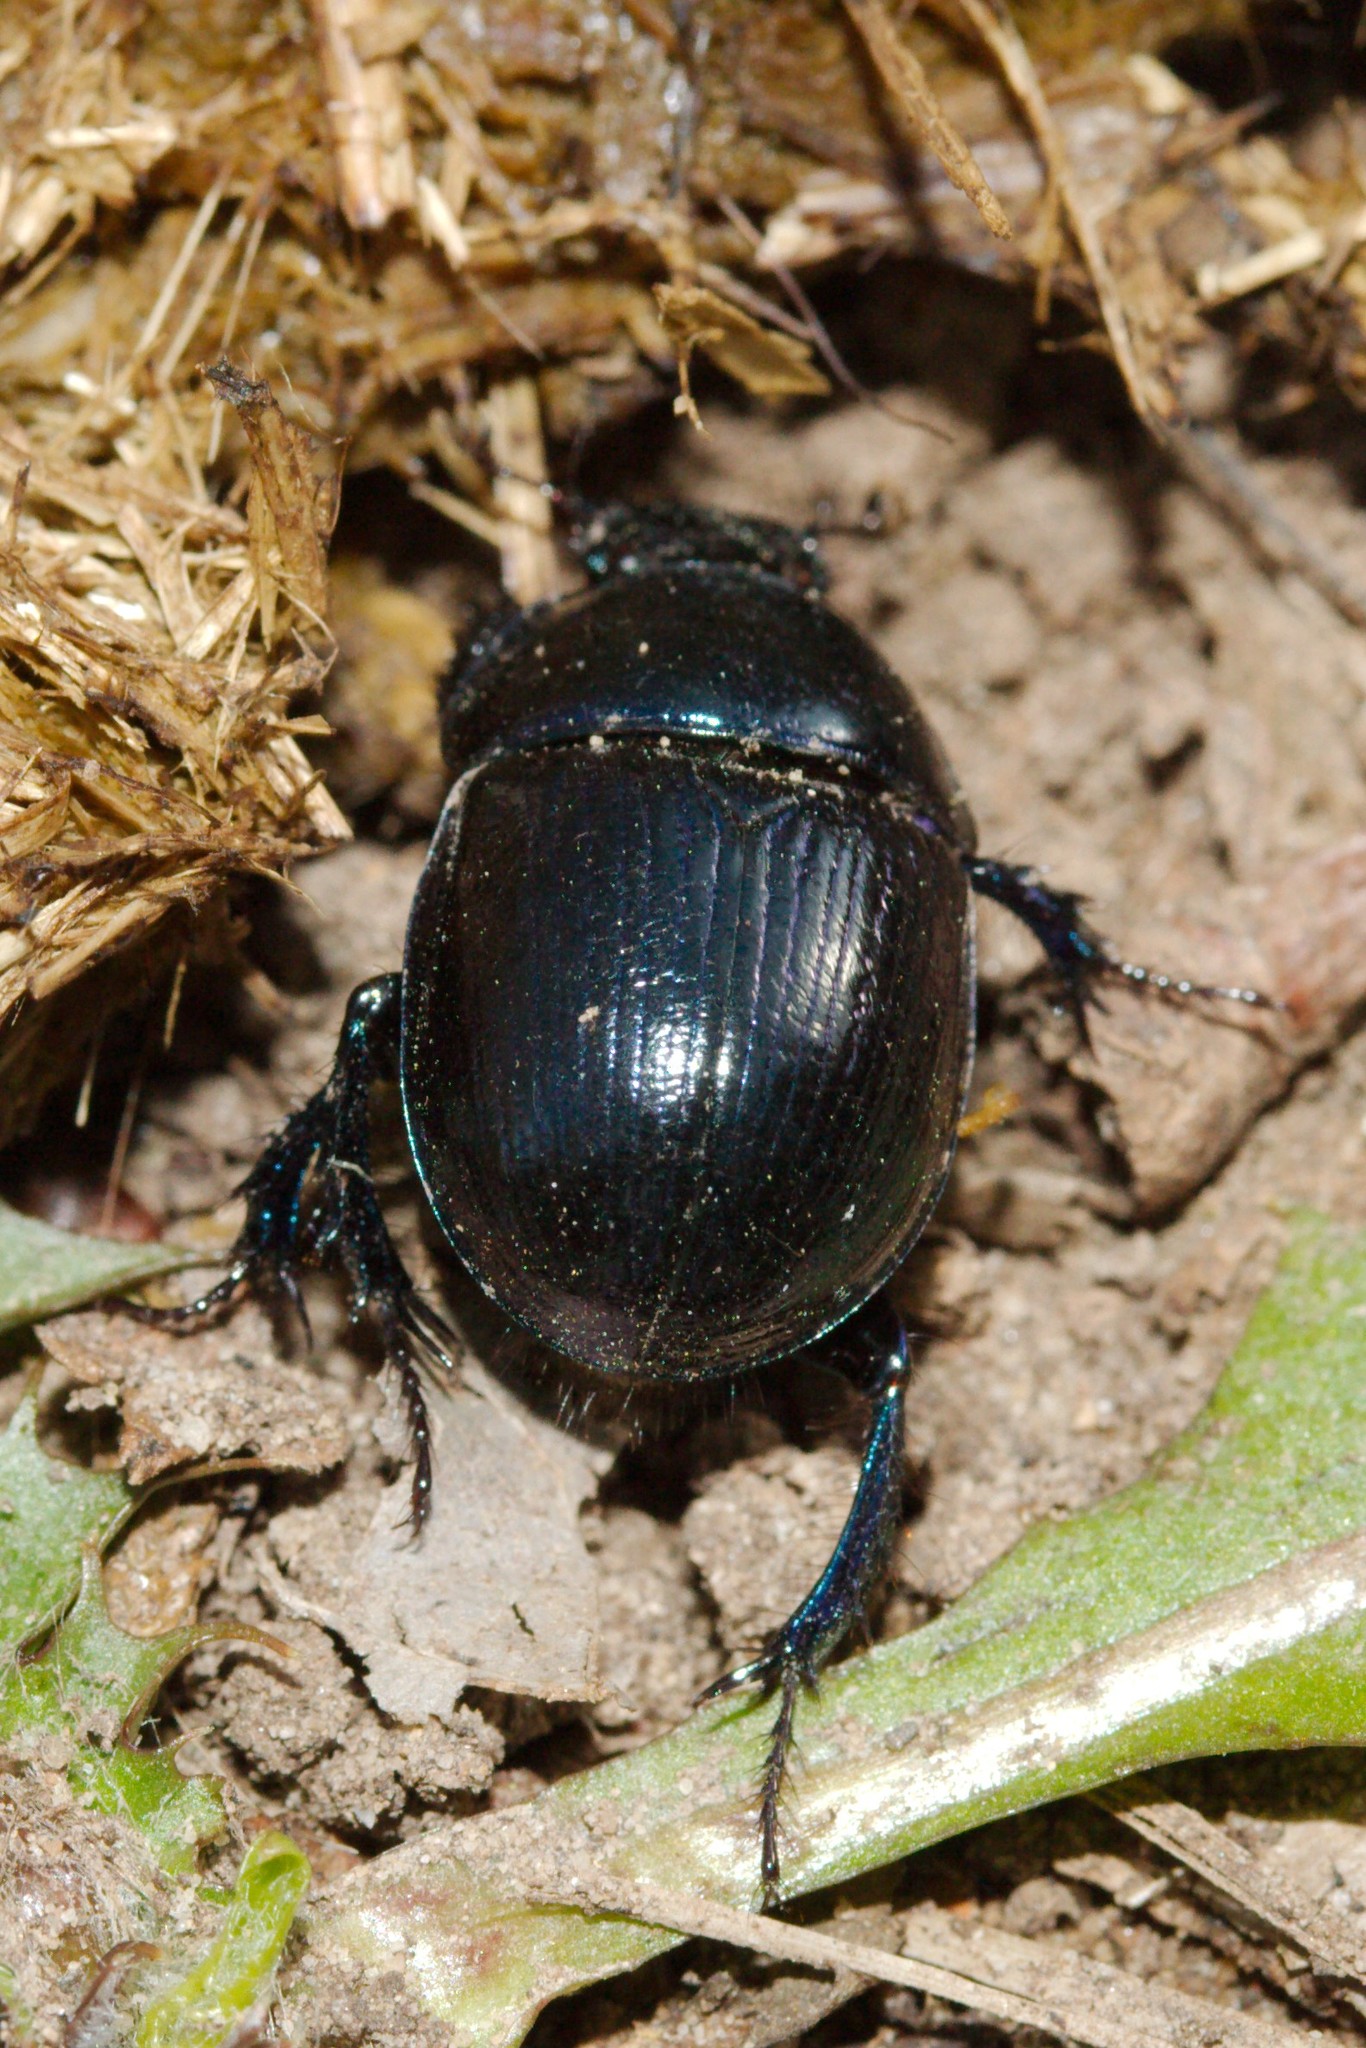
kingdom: Animalia
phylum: Arthropoda
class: Insecta
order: Coleoptera
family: Geotrupidae
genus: Anoplotrupes
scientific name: Anoplotrupes stercorosus
